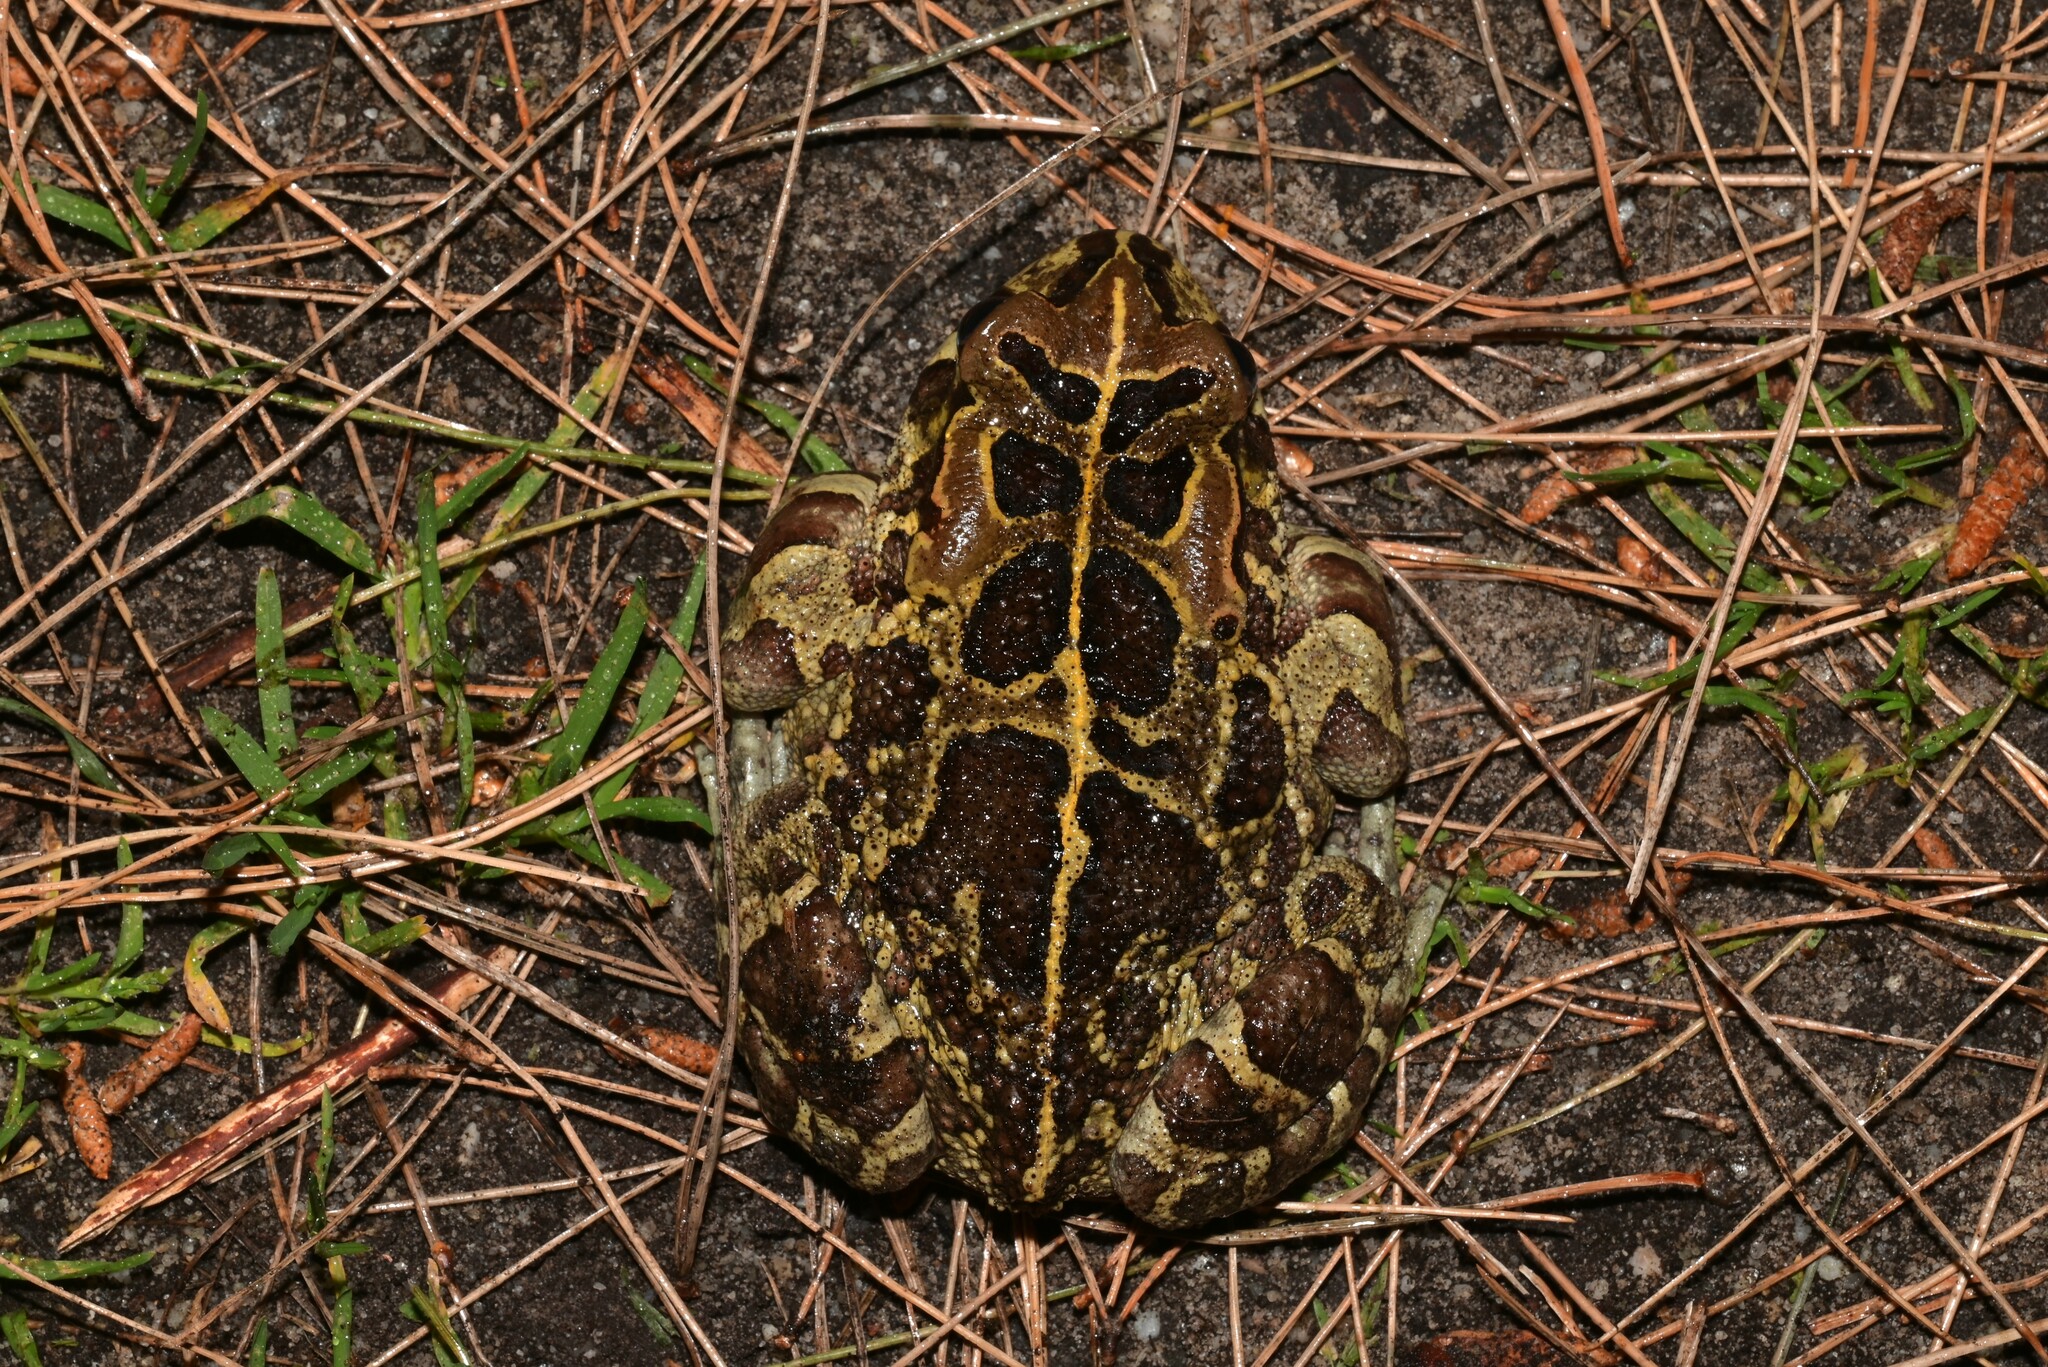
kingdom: Animalia
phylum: Chordata
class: Amphibia
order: Anura
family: Bufonidae
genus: Sclerophrys
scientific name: Sclerophrys pantherina
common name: Panther toad
